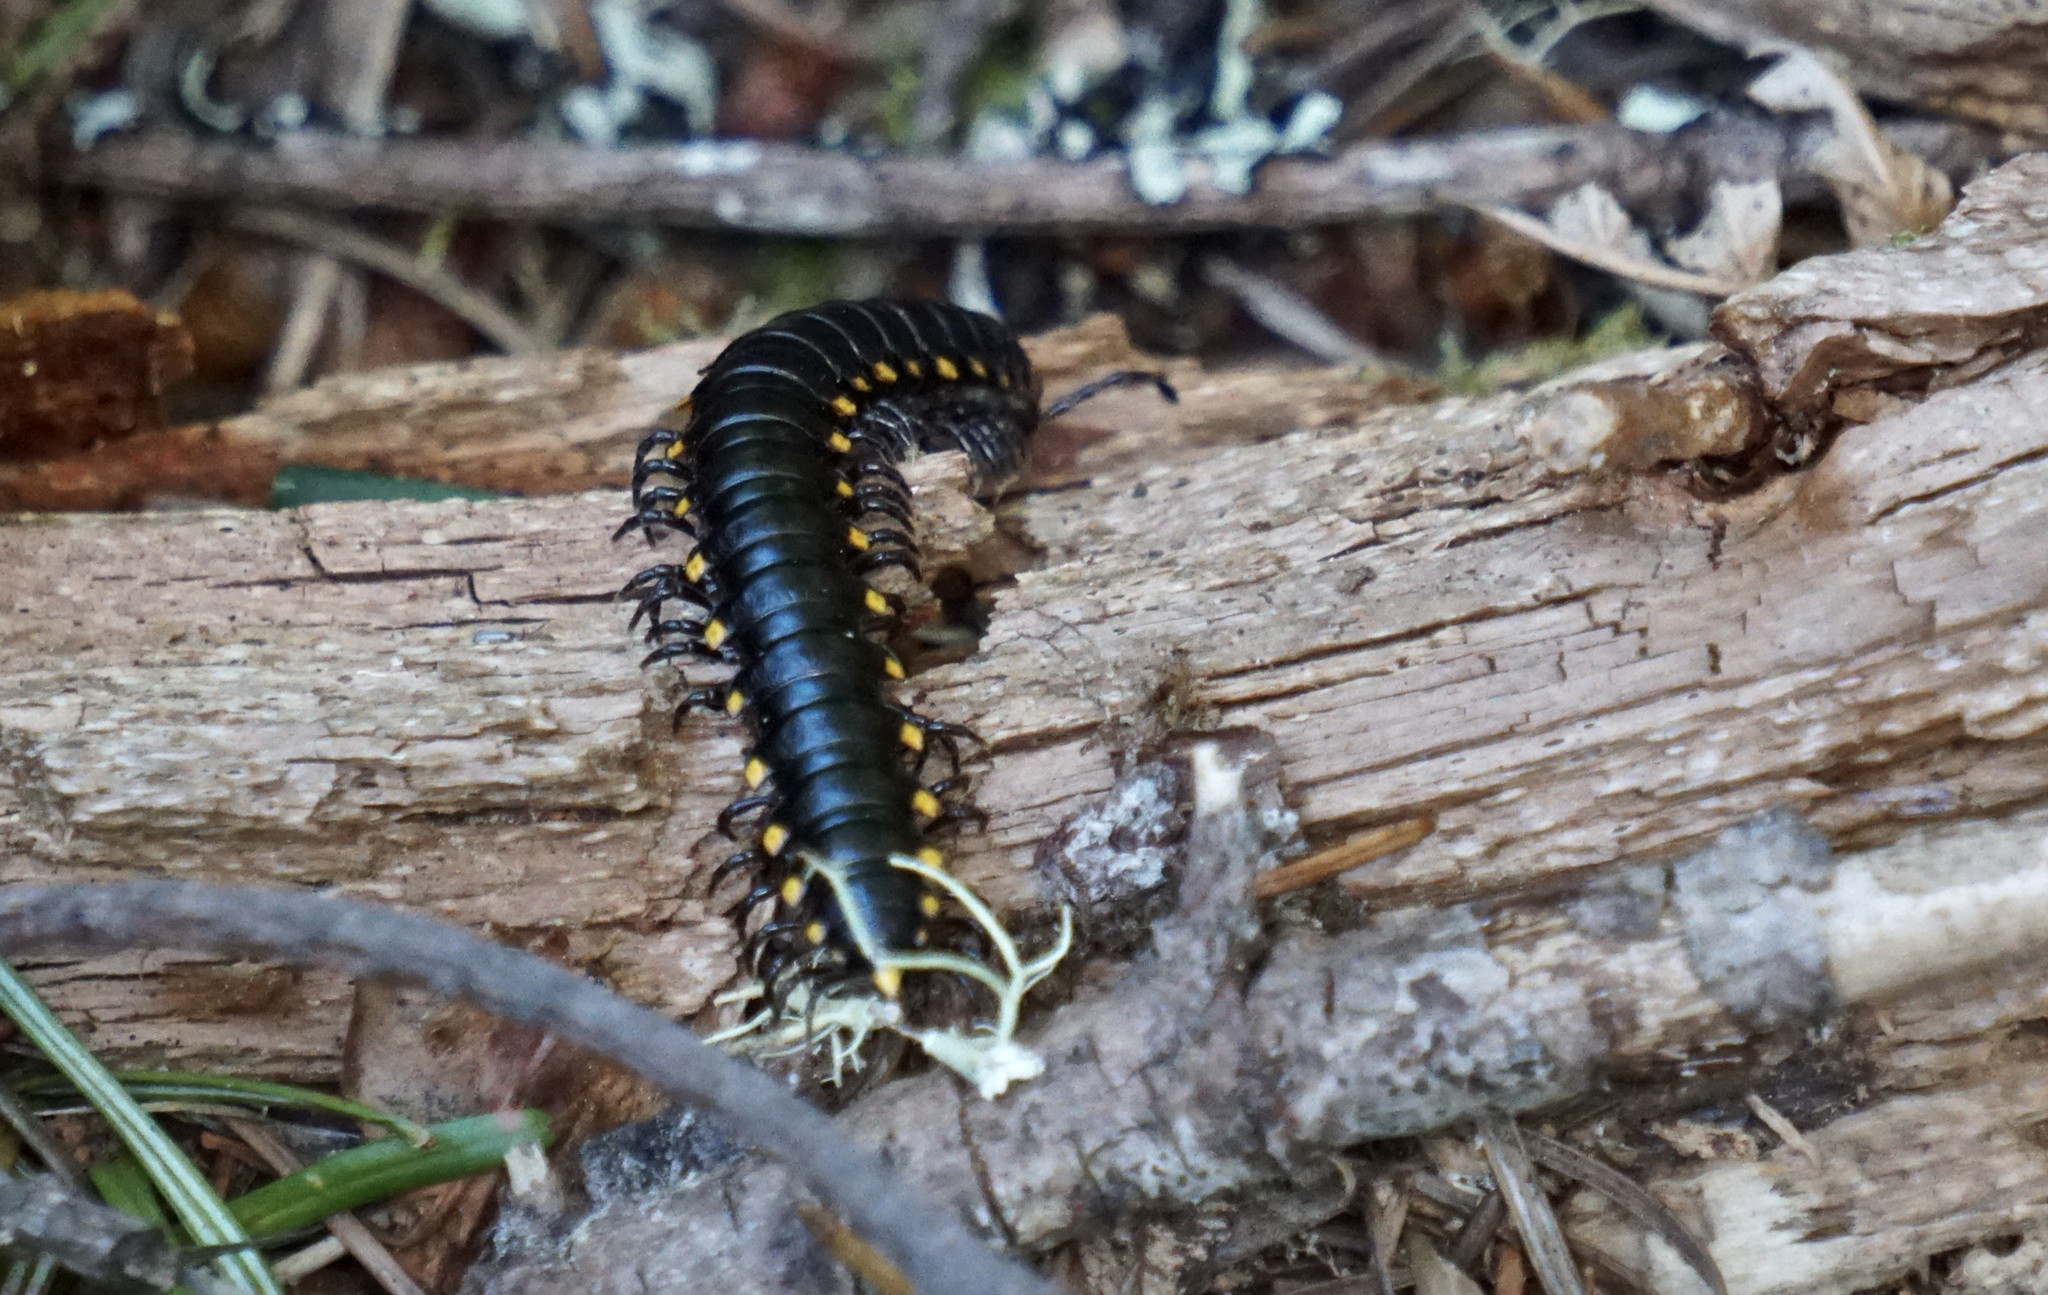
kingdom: Animalia
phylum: Arthropoda
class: Diplopoda
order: Polydesmida
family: Xystodesmidae
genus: Harpaphe
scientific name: Harpaphe haydeniana
